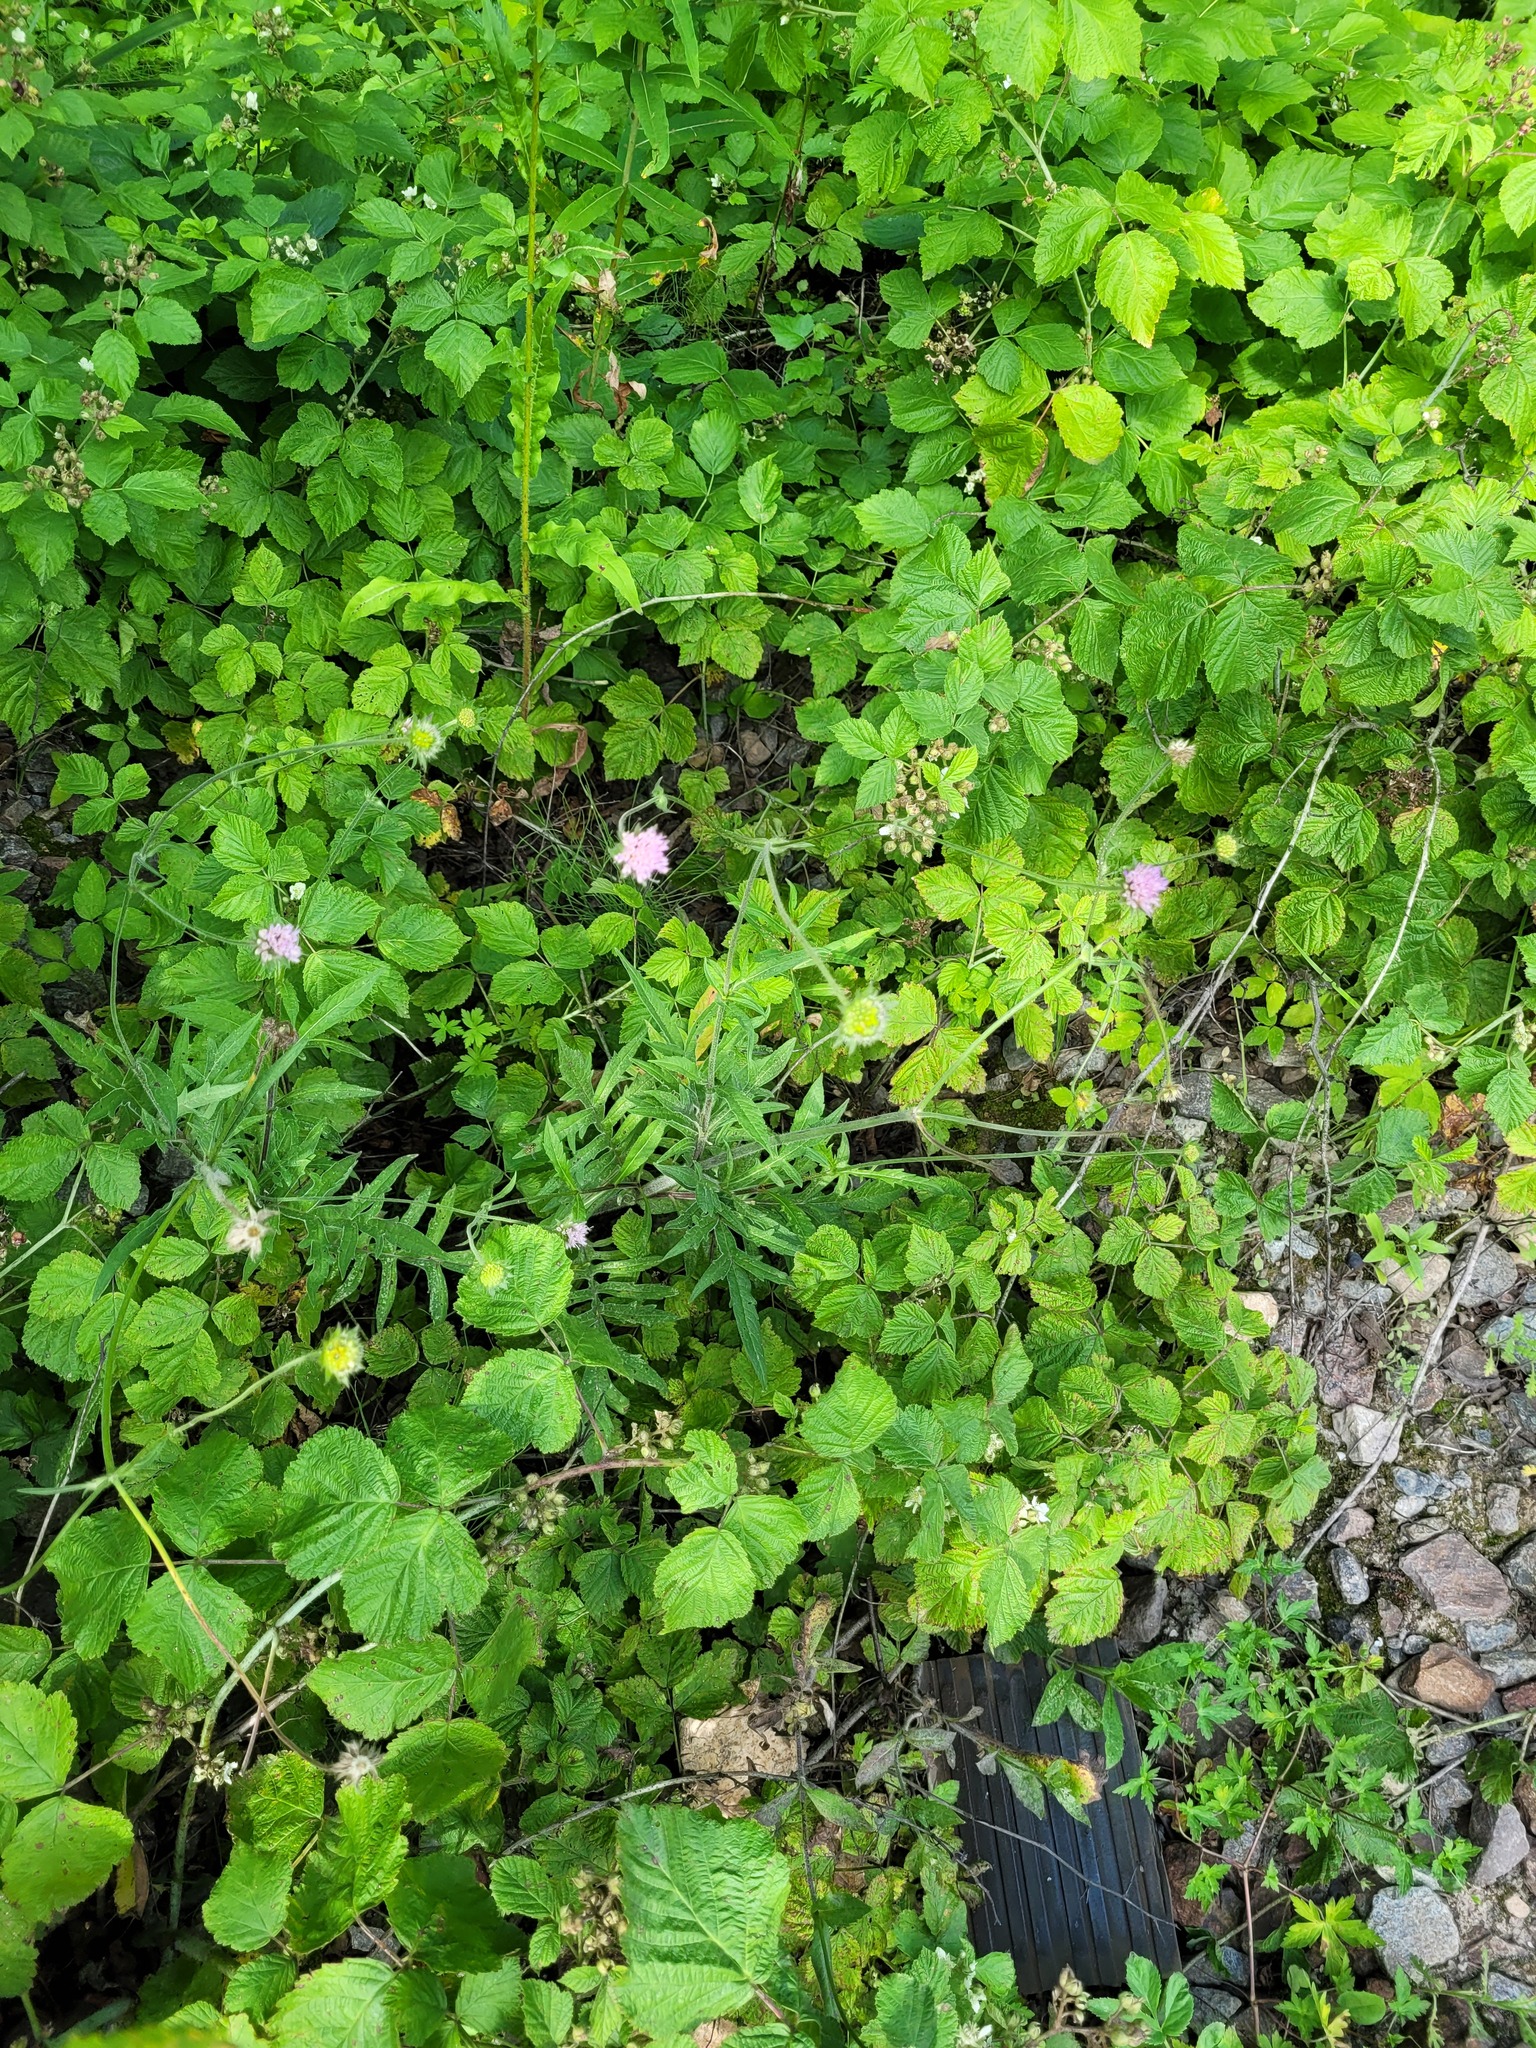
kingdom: Plantae
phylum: Tracheophyta
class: Magnoliopsida
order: Dipsacales
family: Caprifoliaceae
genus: Knautia
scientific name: Knautia arvensis
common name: Field scabiosa
